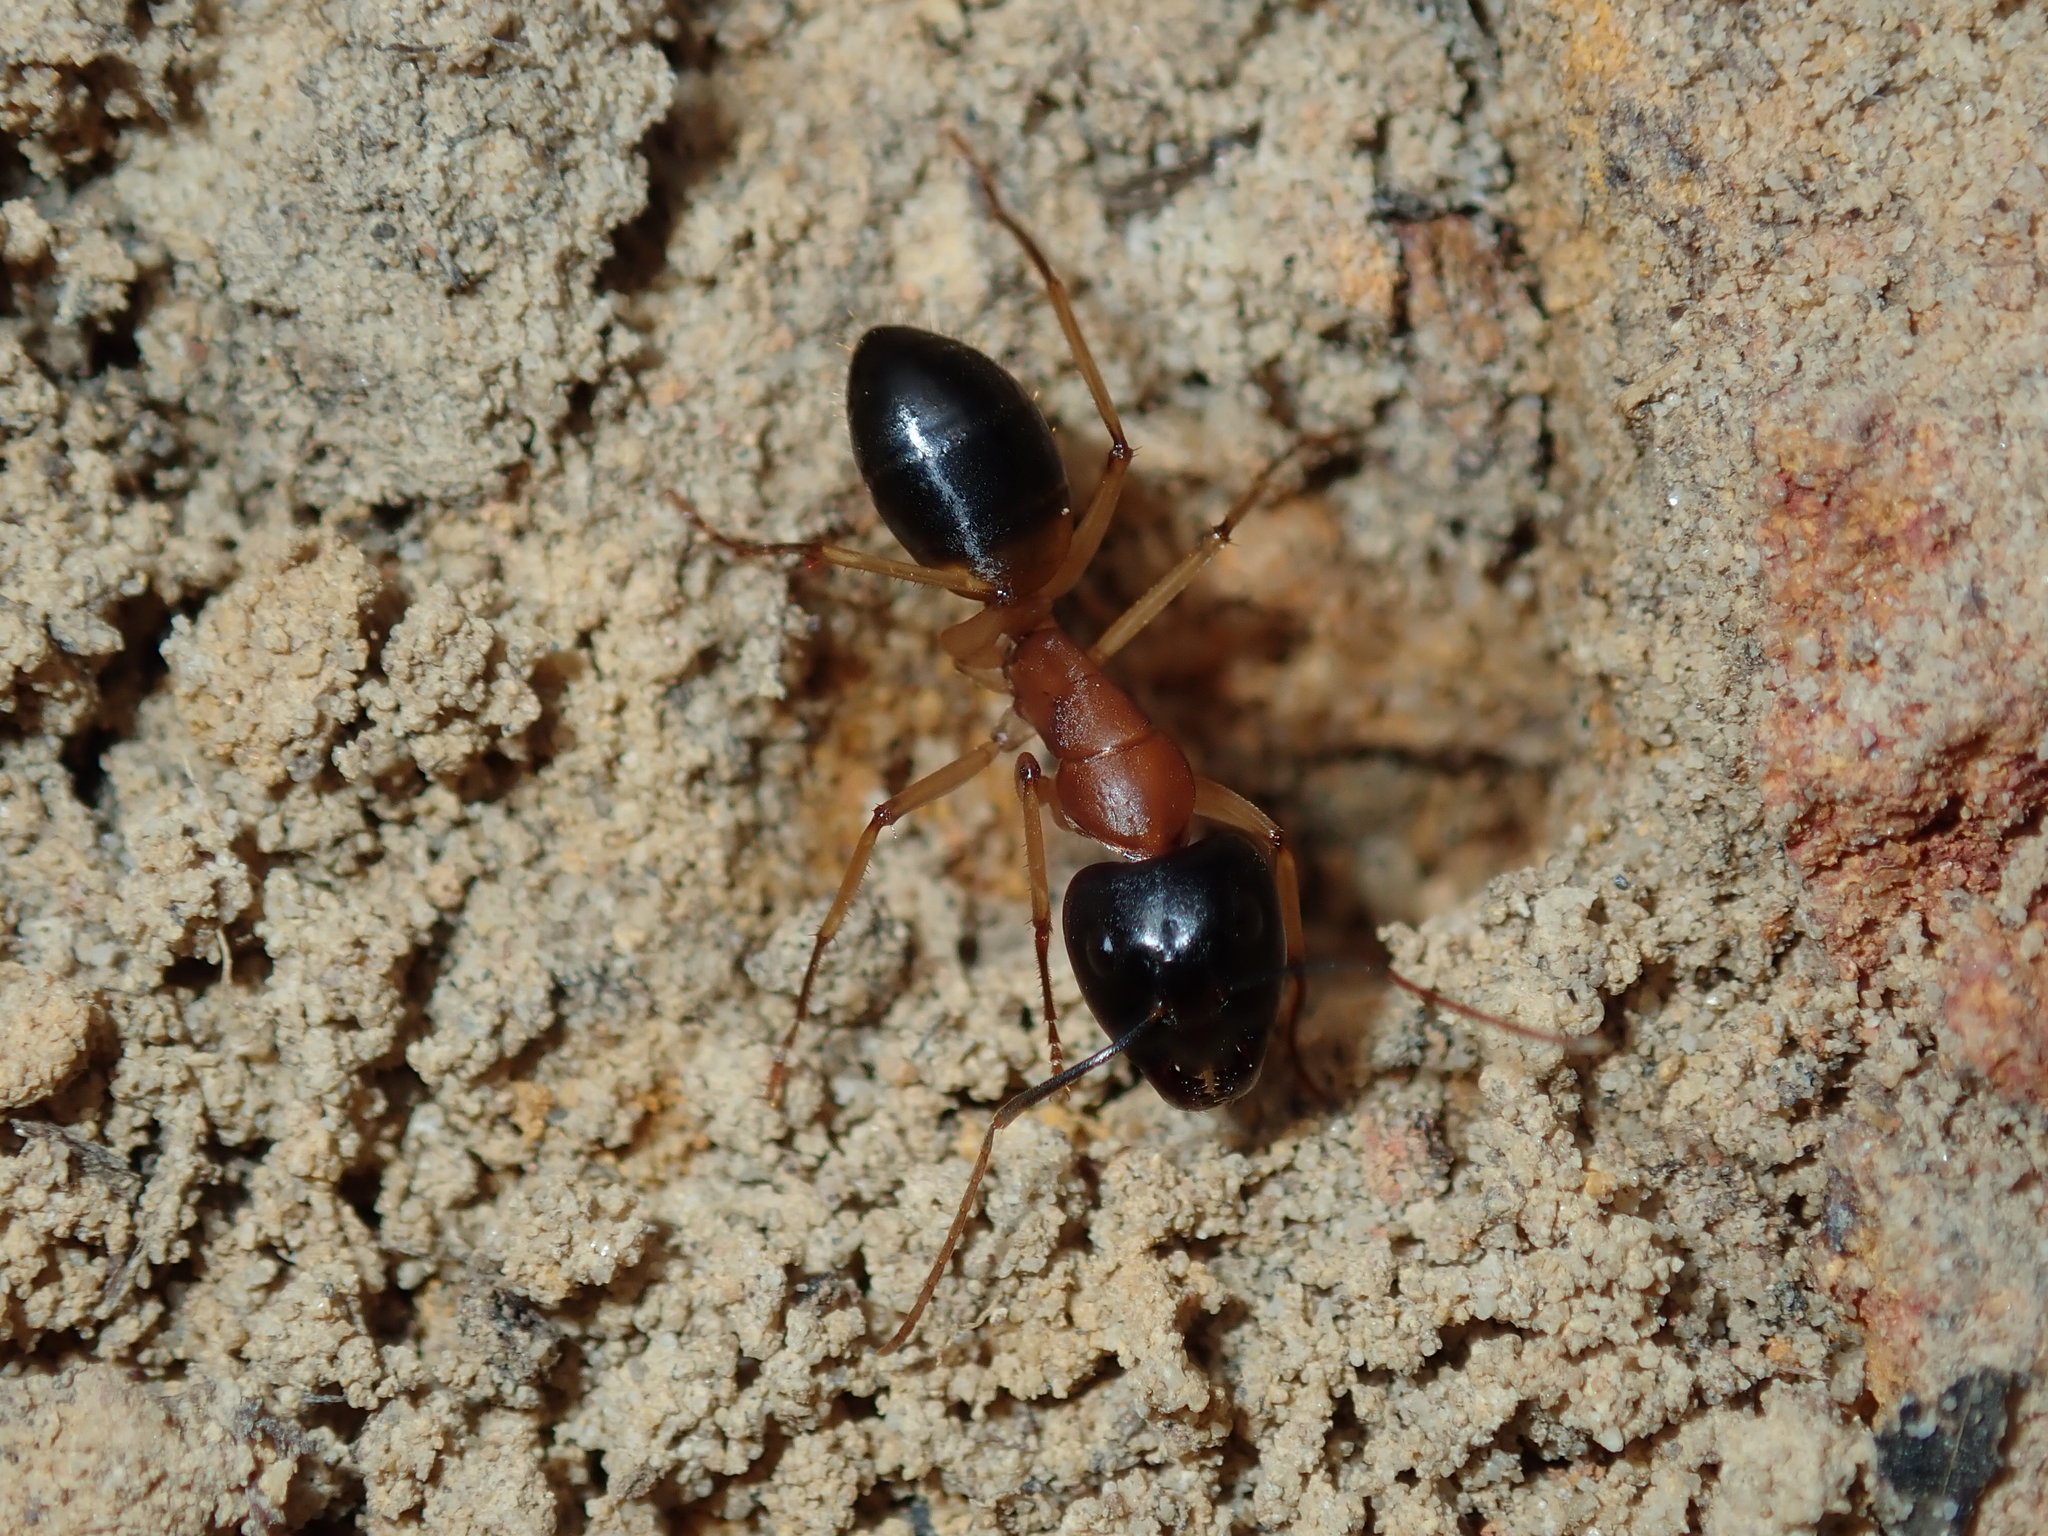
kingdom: Animalia
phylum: Arthropoda
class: Insecta
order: Hymenoptera
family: Formicidae
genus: Camponotus
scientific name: Camponotus consobrinus
